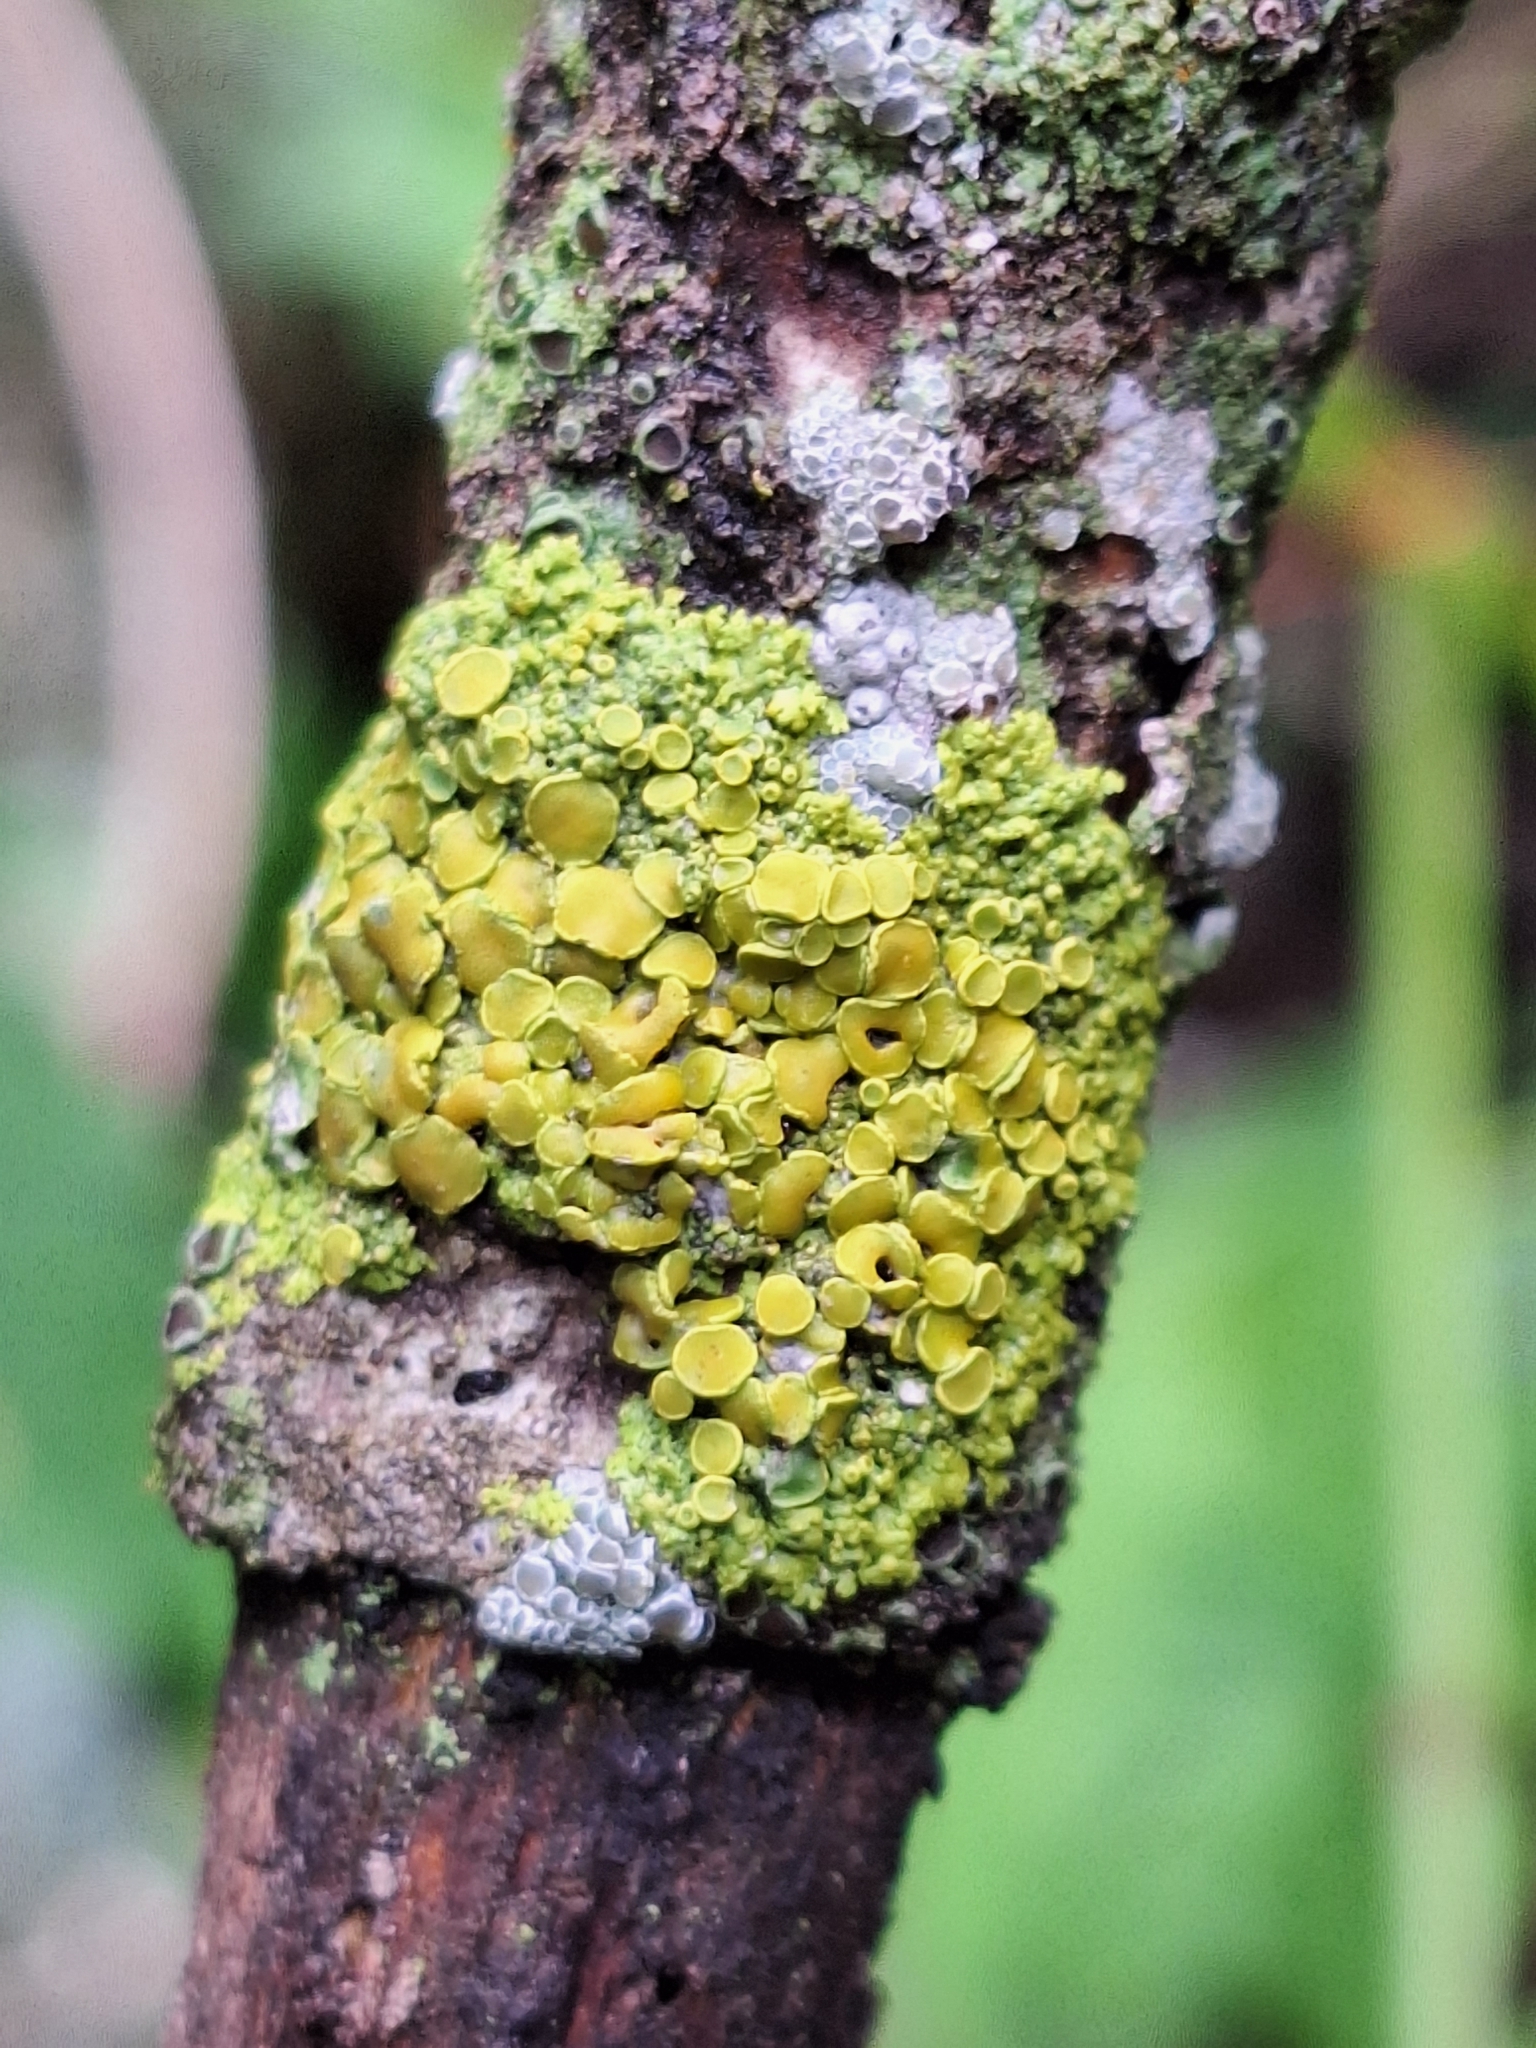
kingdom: Fungi
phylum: Ascomycota
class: Candelariomycetes
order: Candelariales
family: Candelariaceae
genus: Candelaria
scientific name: Candelaria fibrosa
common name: Fringed candleflame lichen
